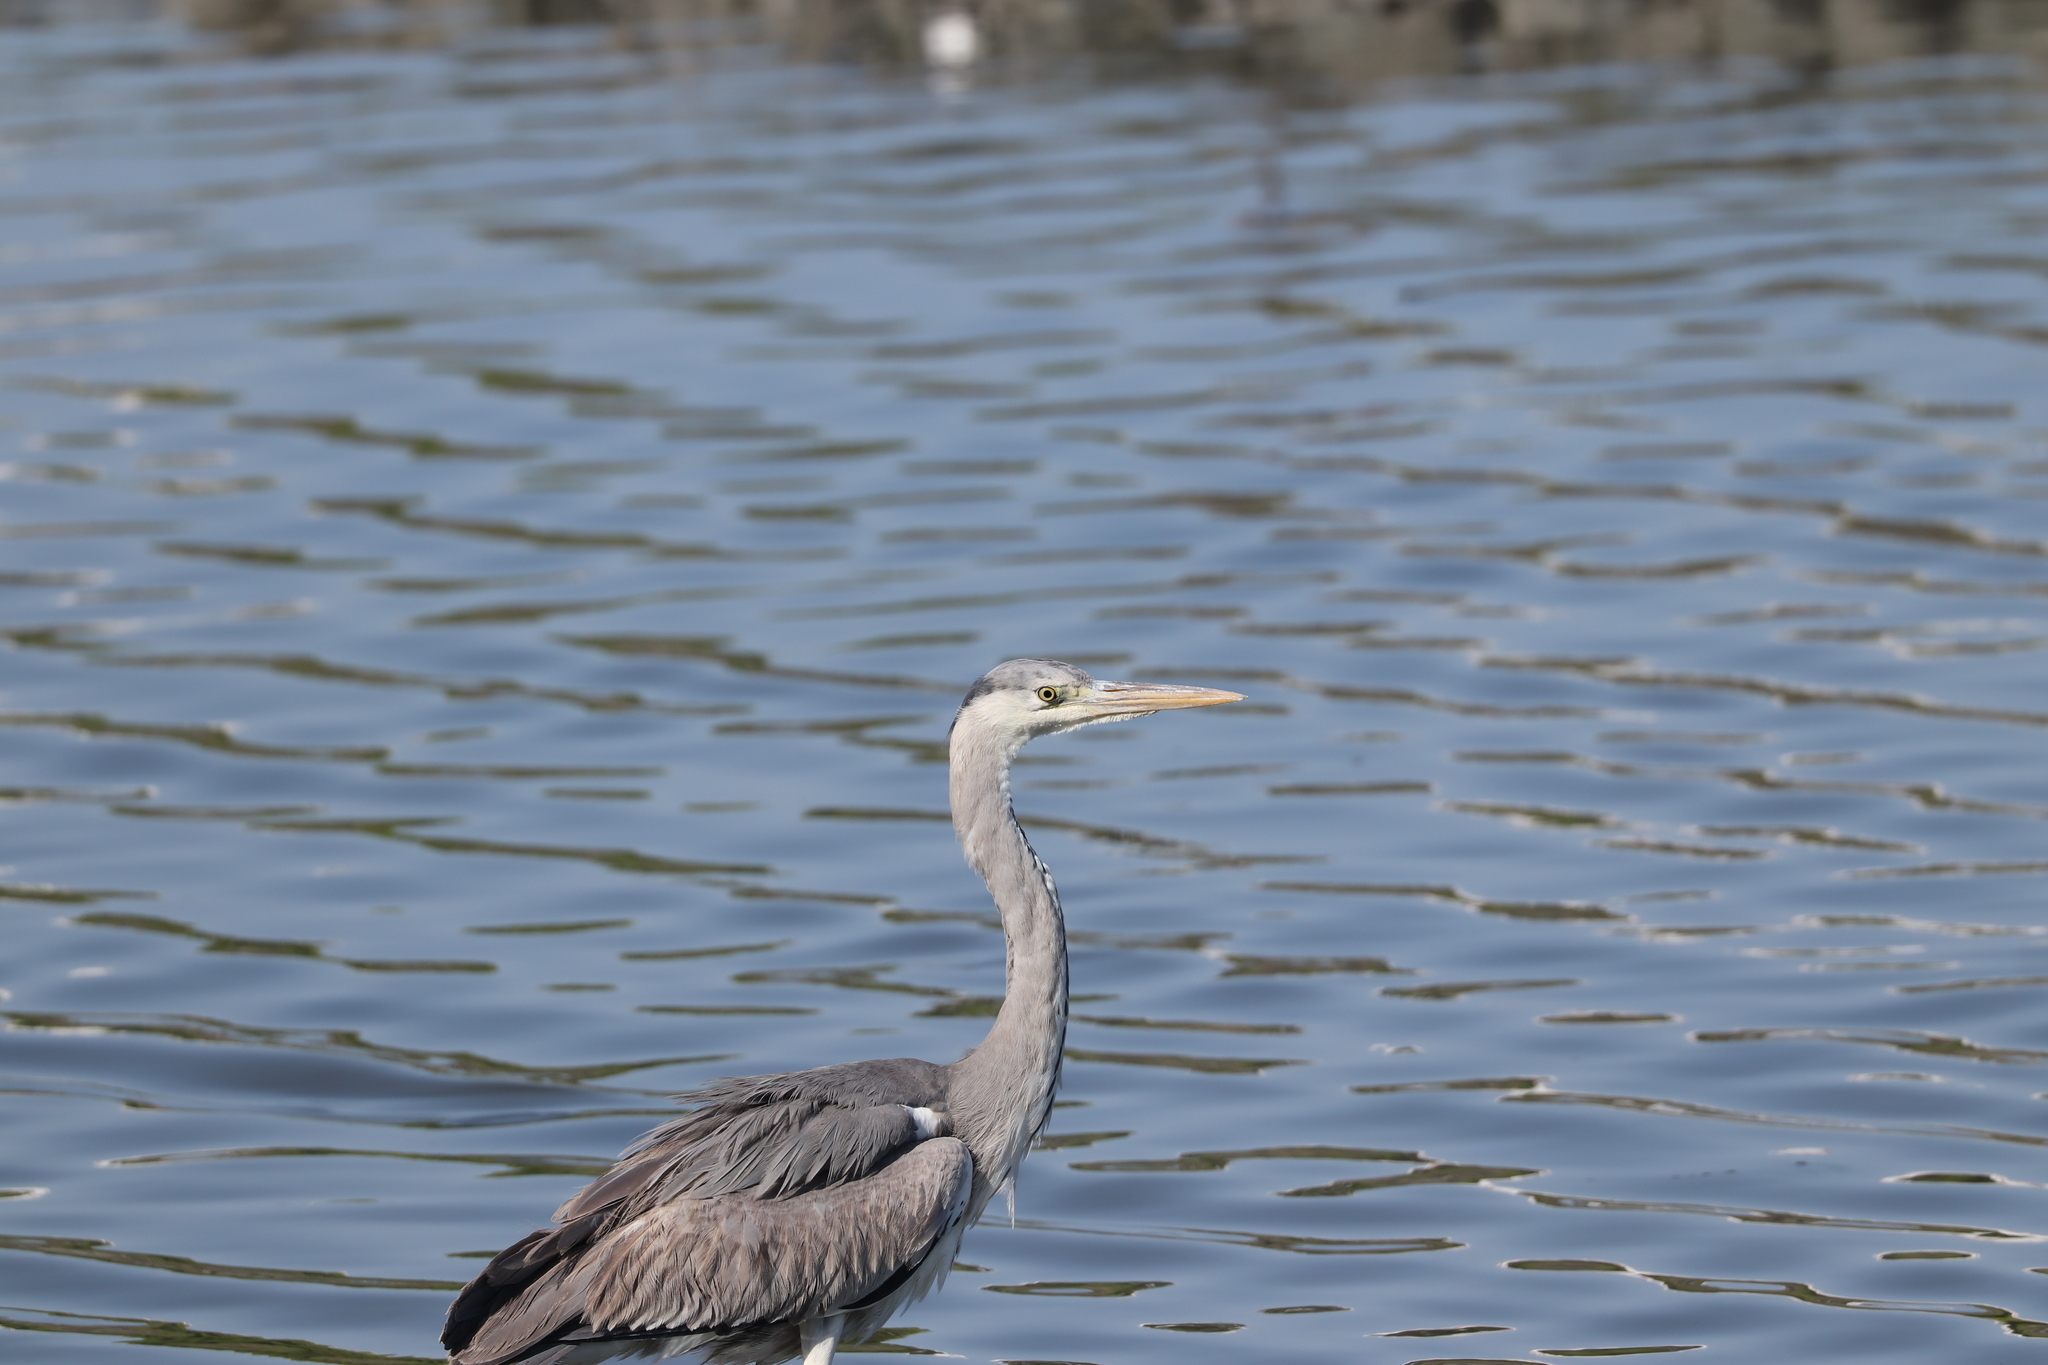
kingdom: Animalia
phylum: Chordata
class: Aves
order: Pelecaniformes
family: Ardeidae
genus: Ardea
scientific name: Ardea cinerea
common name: Grey heron
